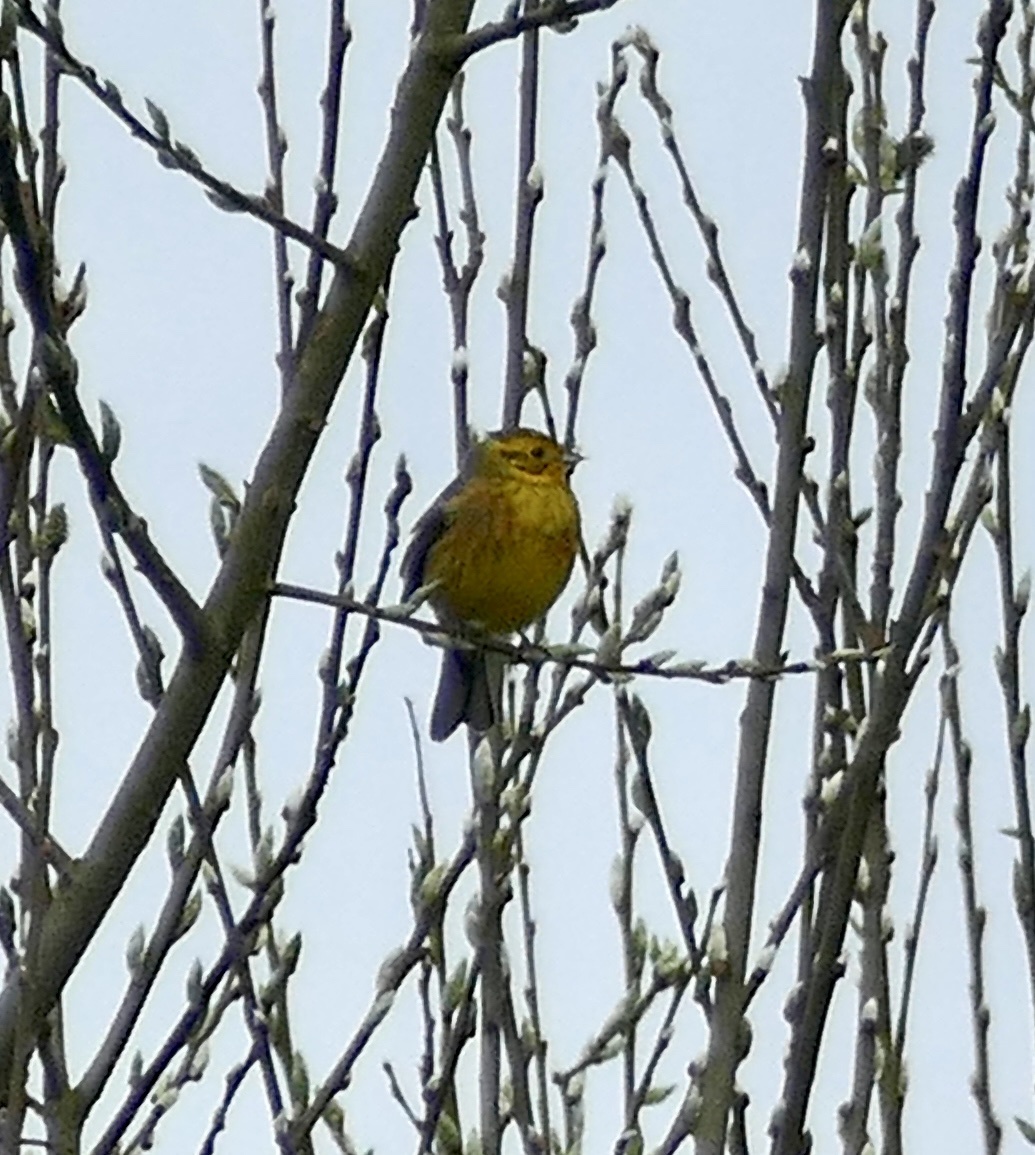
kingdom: Animalia
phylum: Chordata
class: Aves
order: Passeriformes
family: Emberizidae
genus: Emberiza
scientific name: Emberiza citrinella
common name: Yellowhammer
